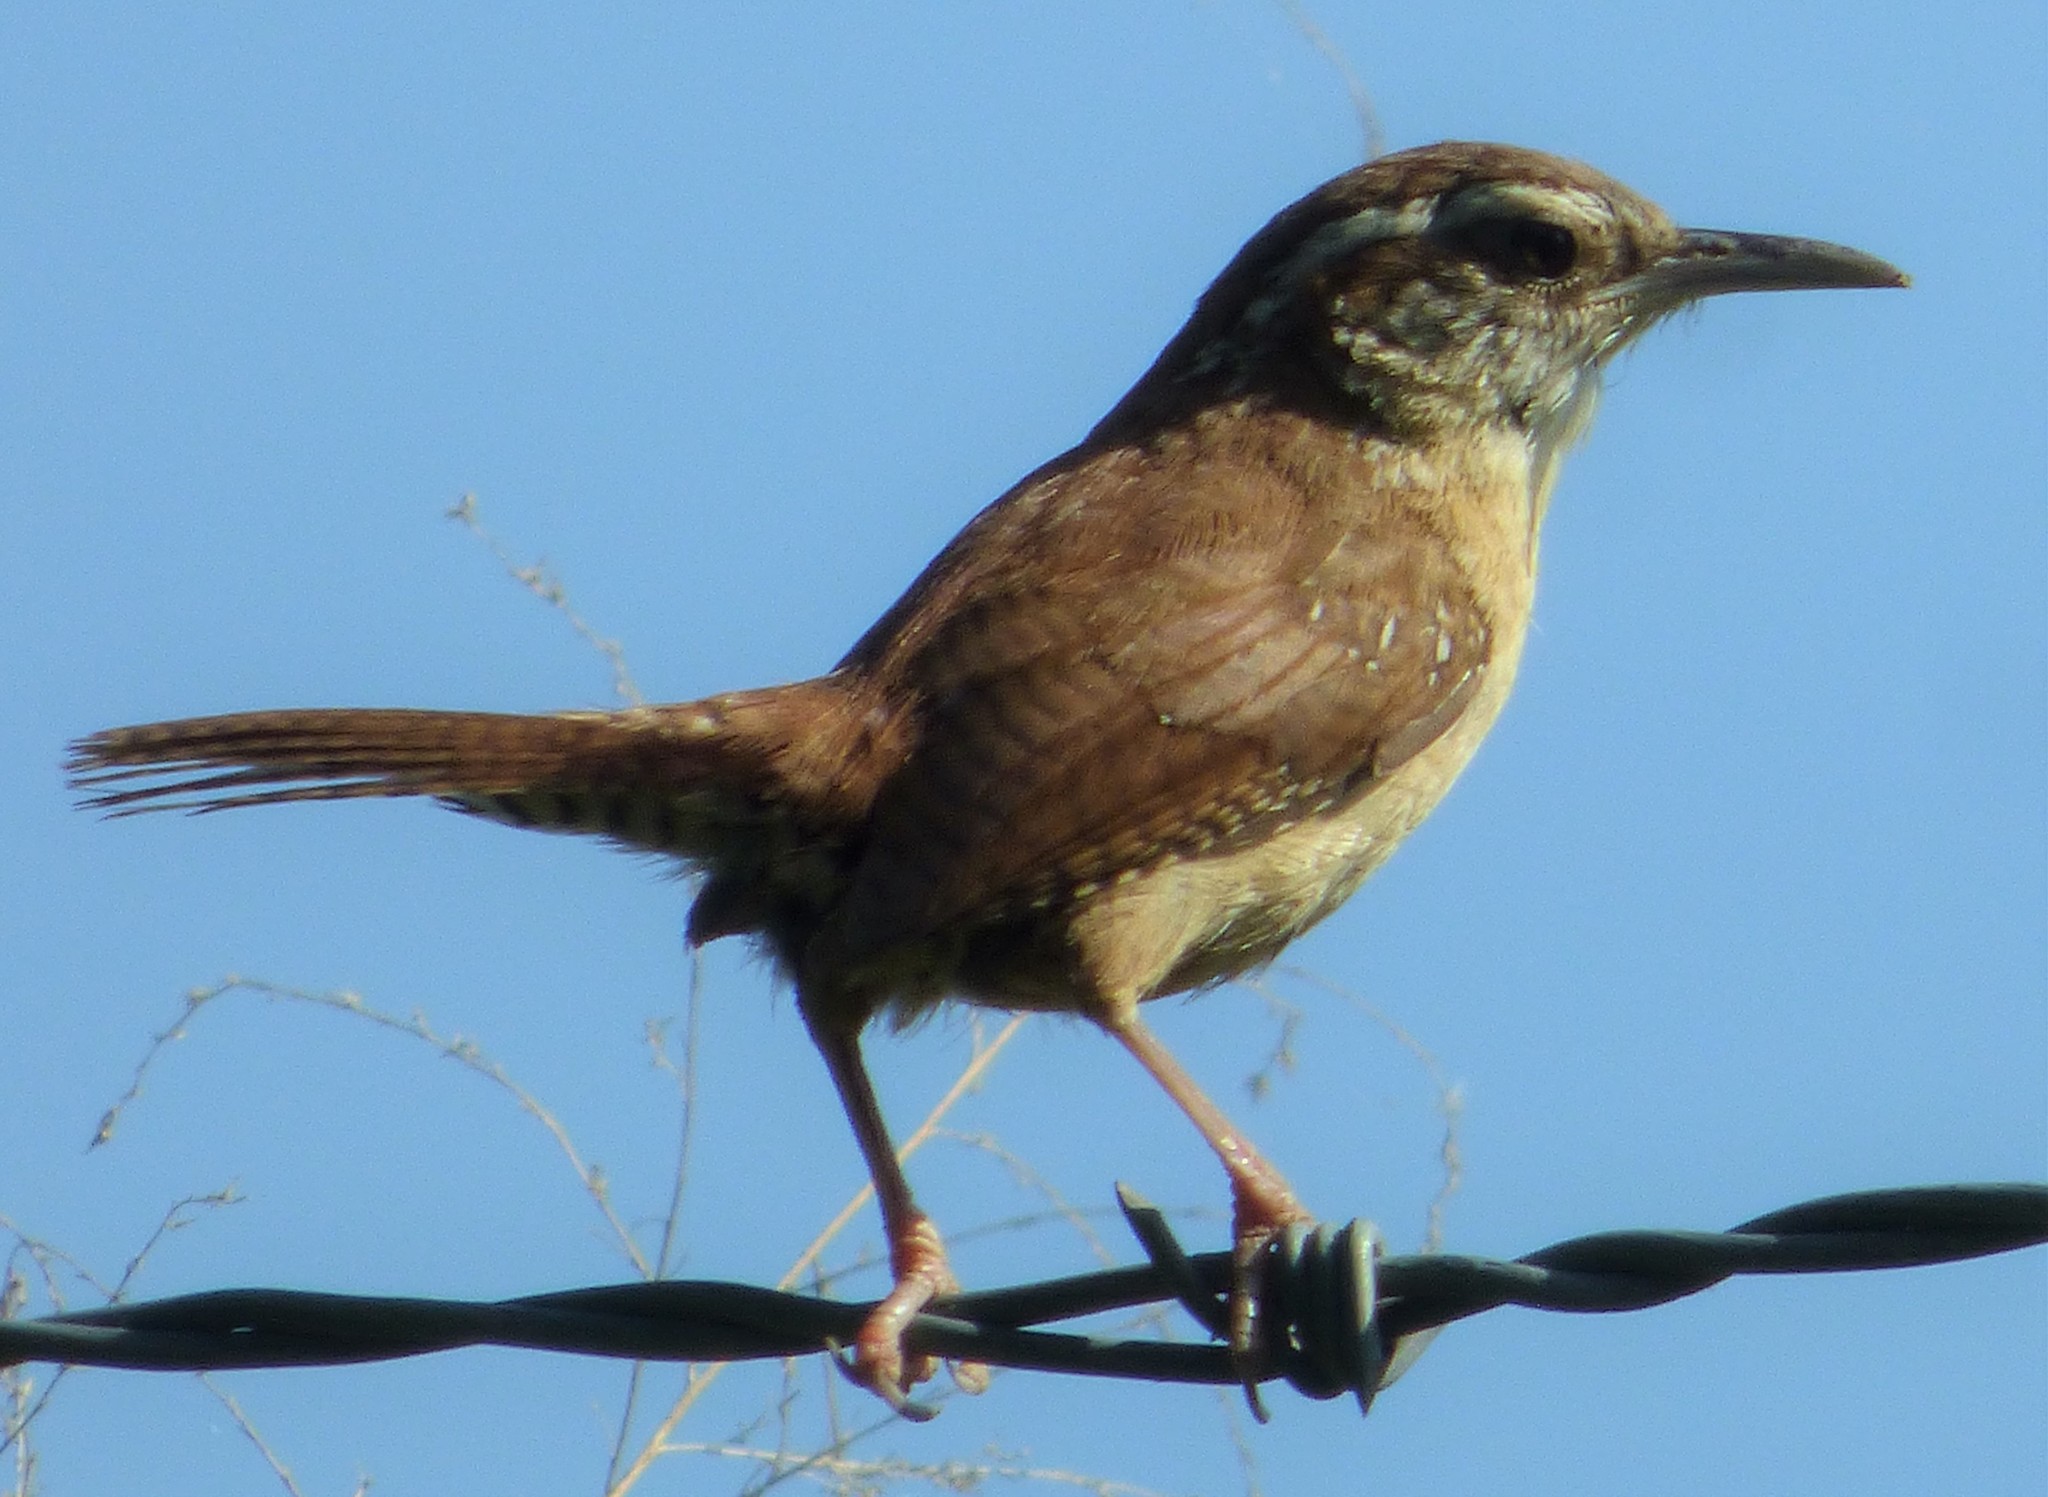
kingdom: Animalia
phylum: Chordata
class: Aves
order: Passeriformes
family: Troglodytidae
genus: Thryothorus
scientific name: Thryothorus ludovicianus
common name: Carolina wren
